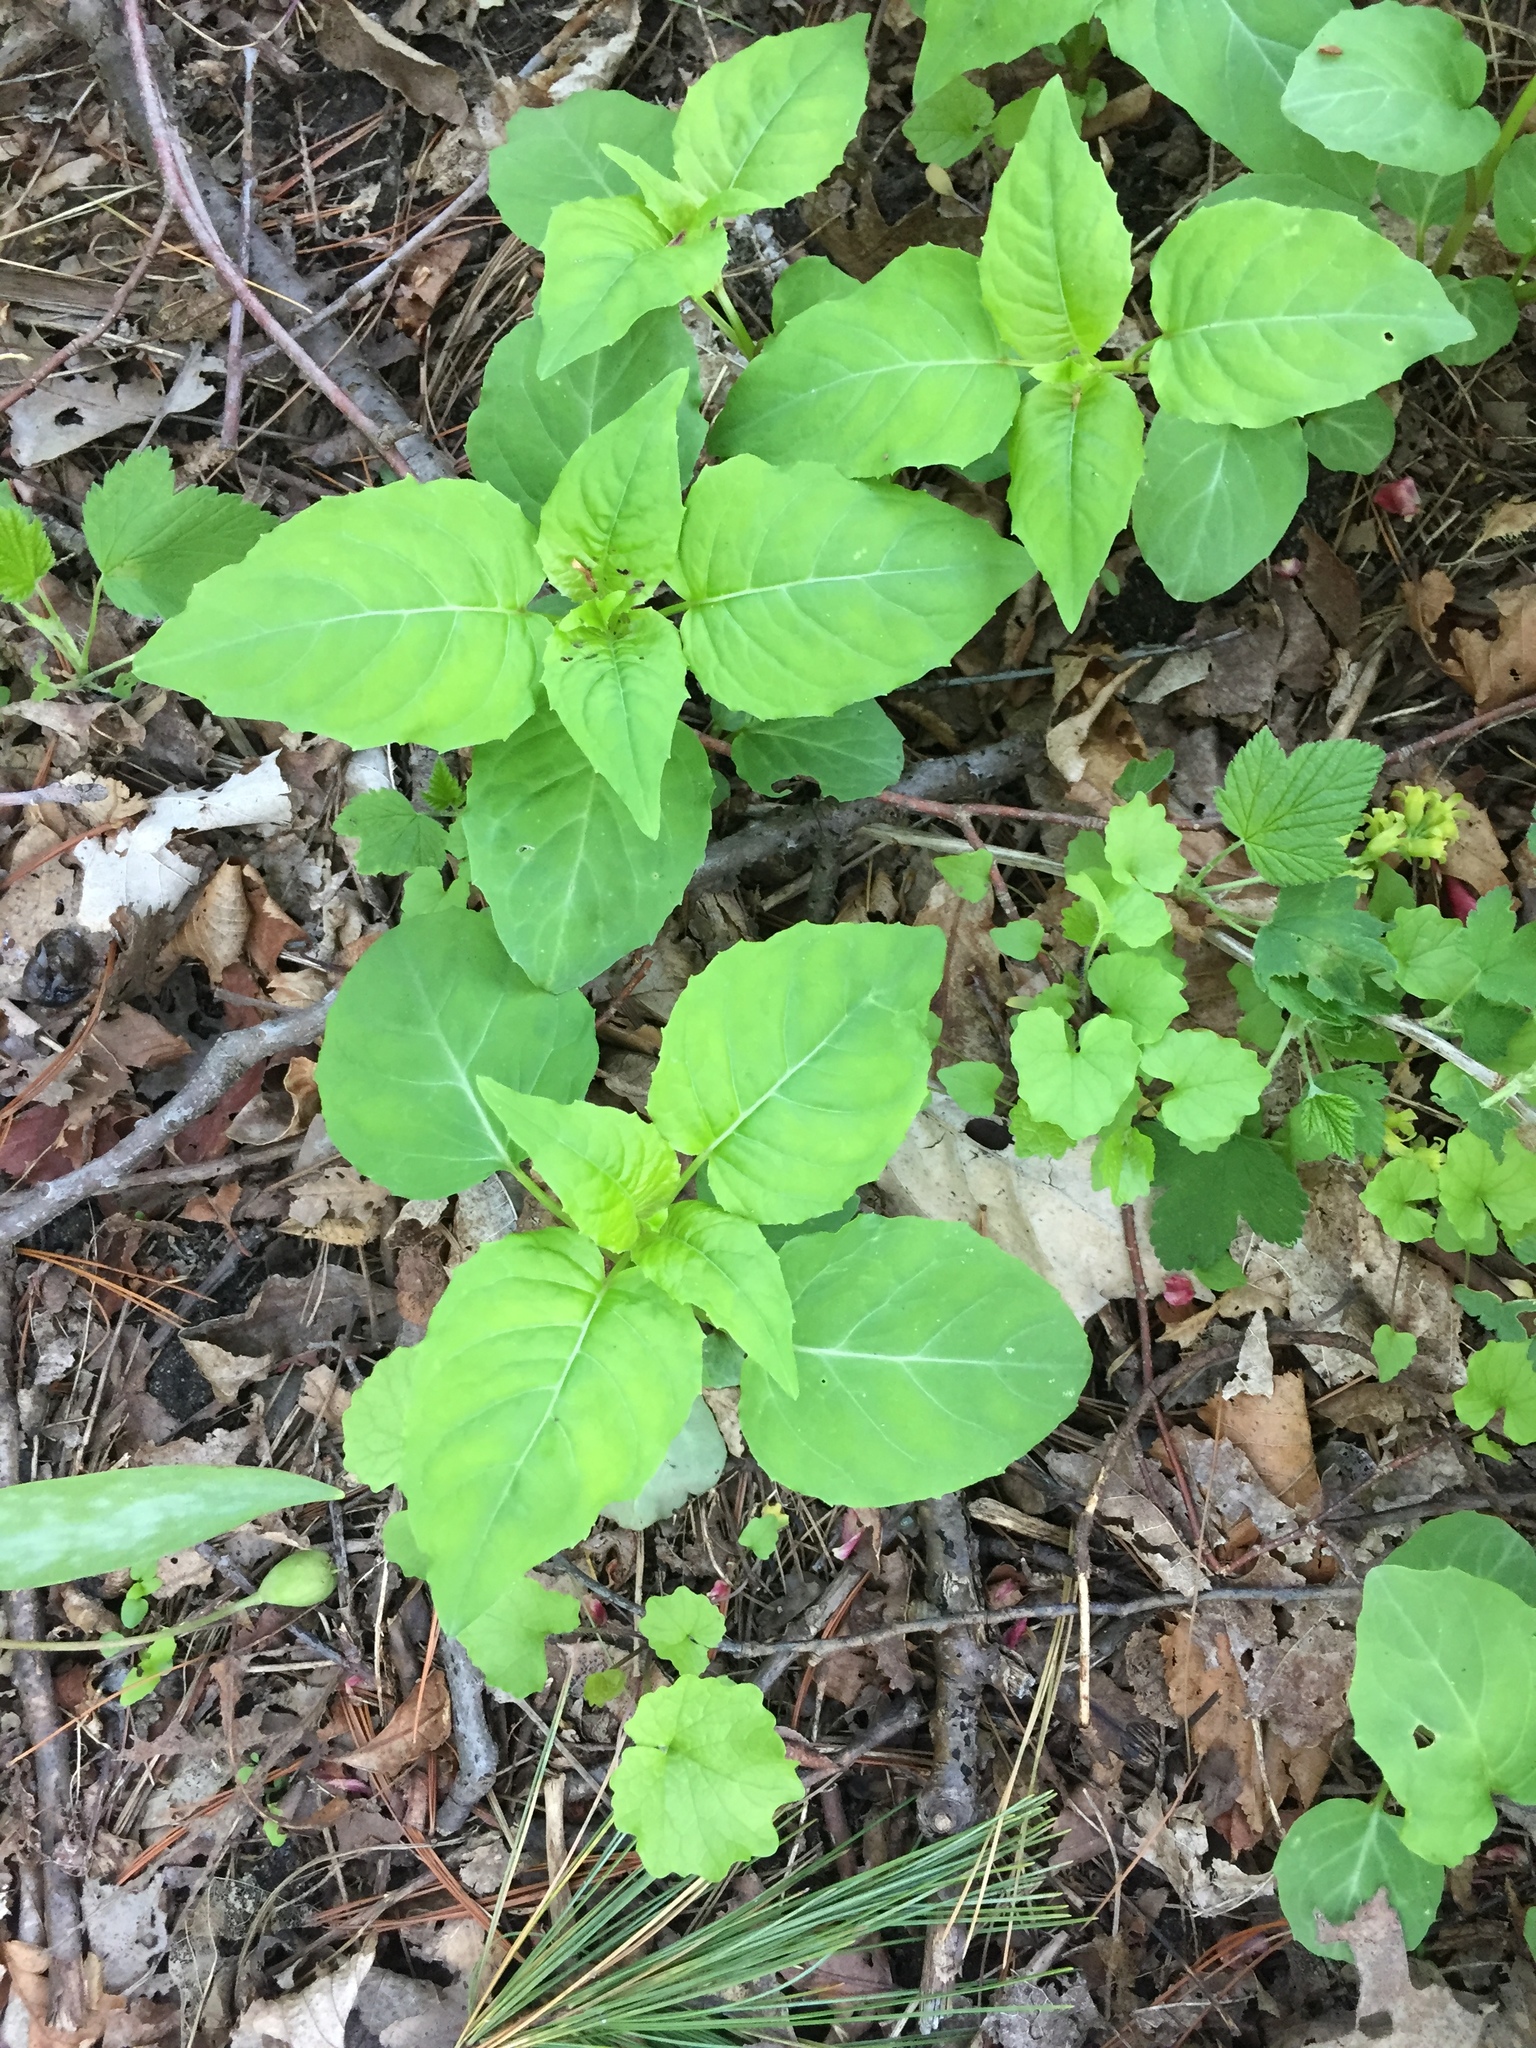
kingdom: Plantae
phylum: Tracheophyta
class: Magnoliopsida
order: Myrtales
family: Onagraceae
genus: Circaea
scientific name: Circaea canadensis
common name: Broad-leaved enchanter's nightshade
